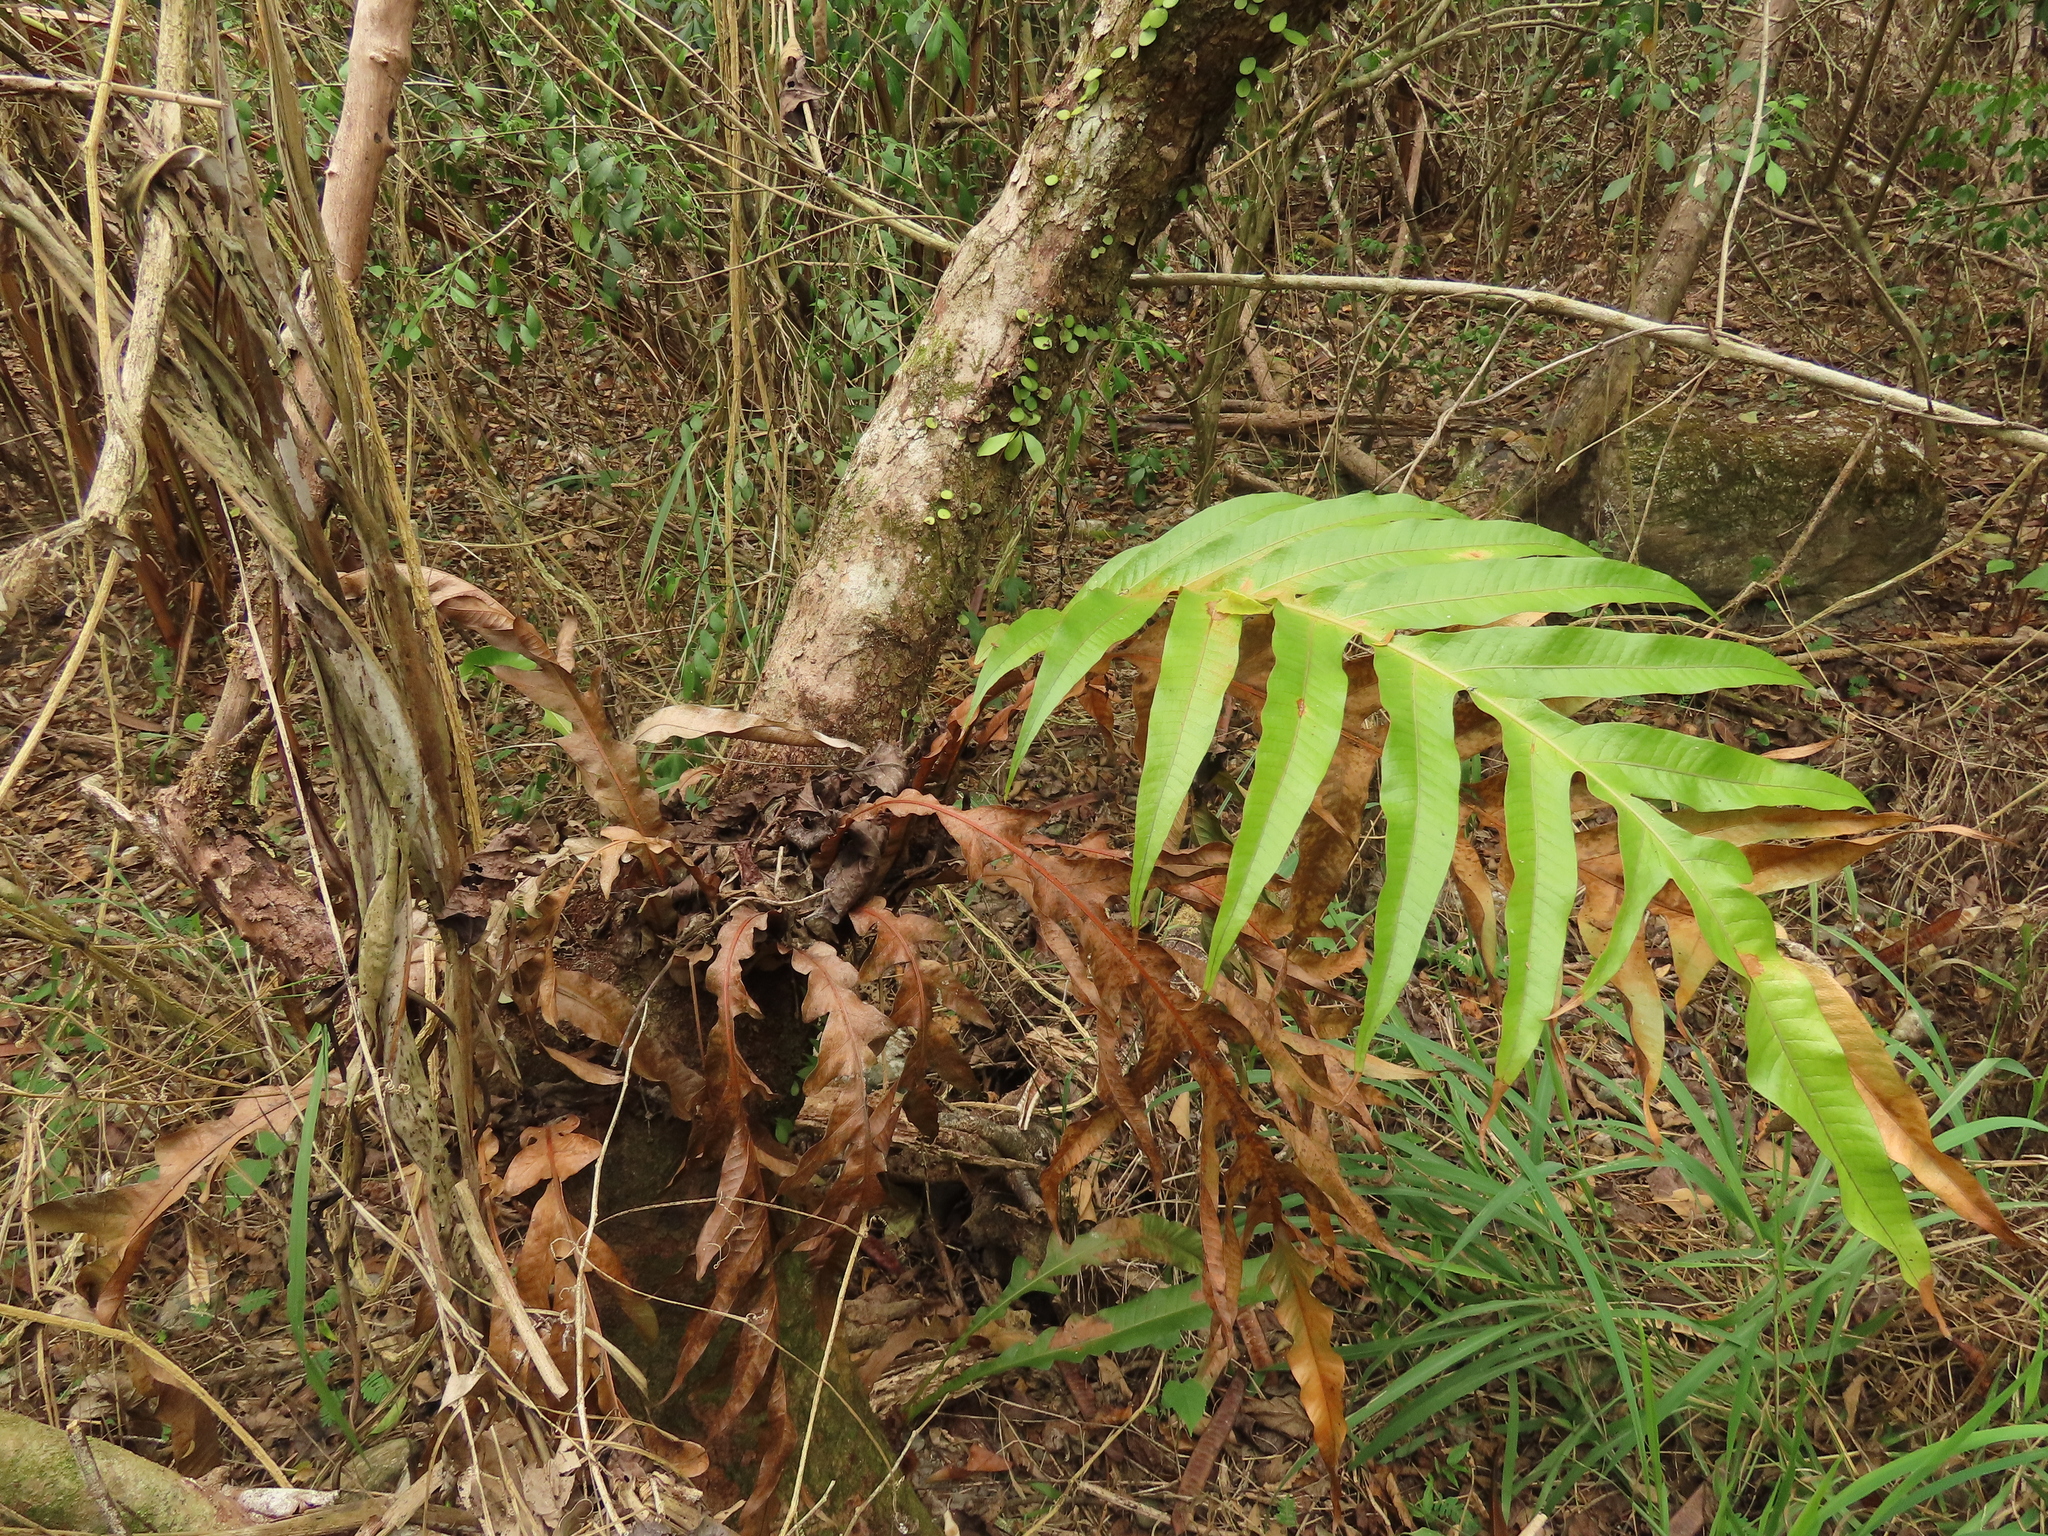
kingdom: Plantae
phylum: Tracheophyta
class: Polypodiopsida
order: Polypodiales
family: Polypodiaceae
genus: Drynaria
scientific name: Drynaria coronans
